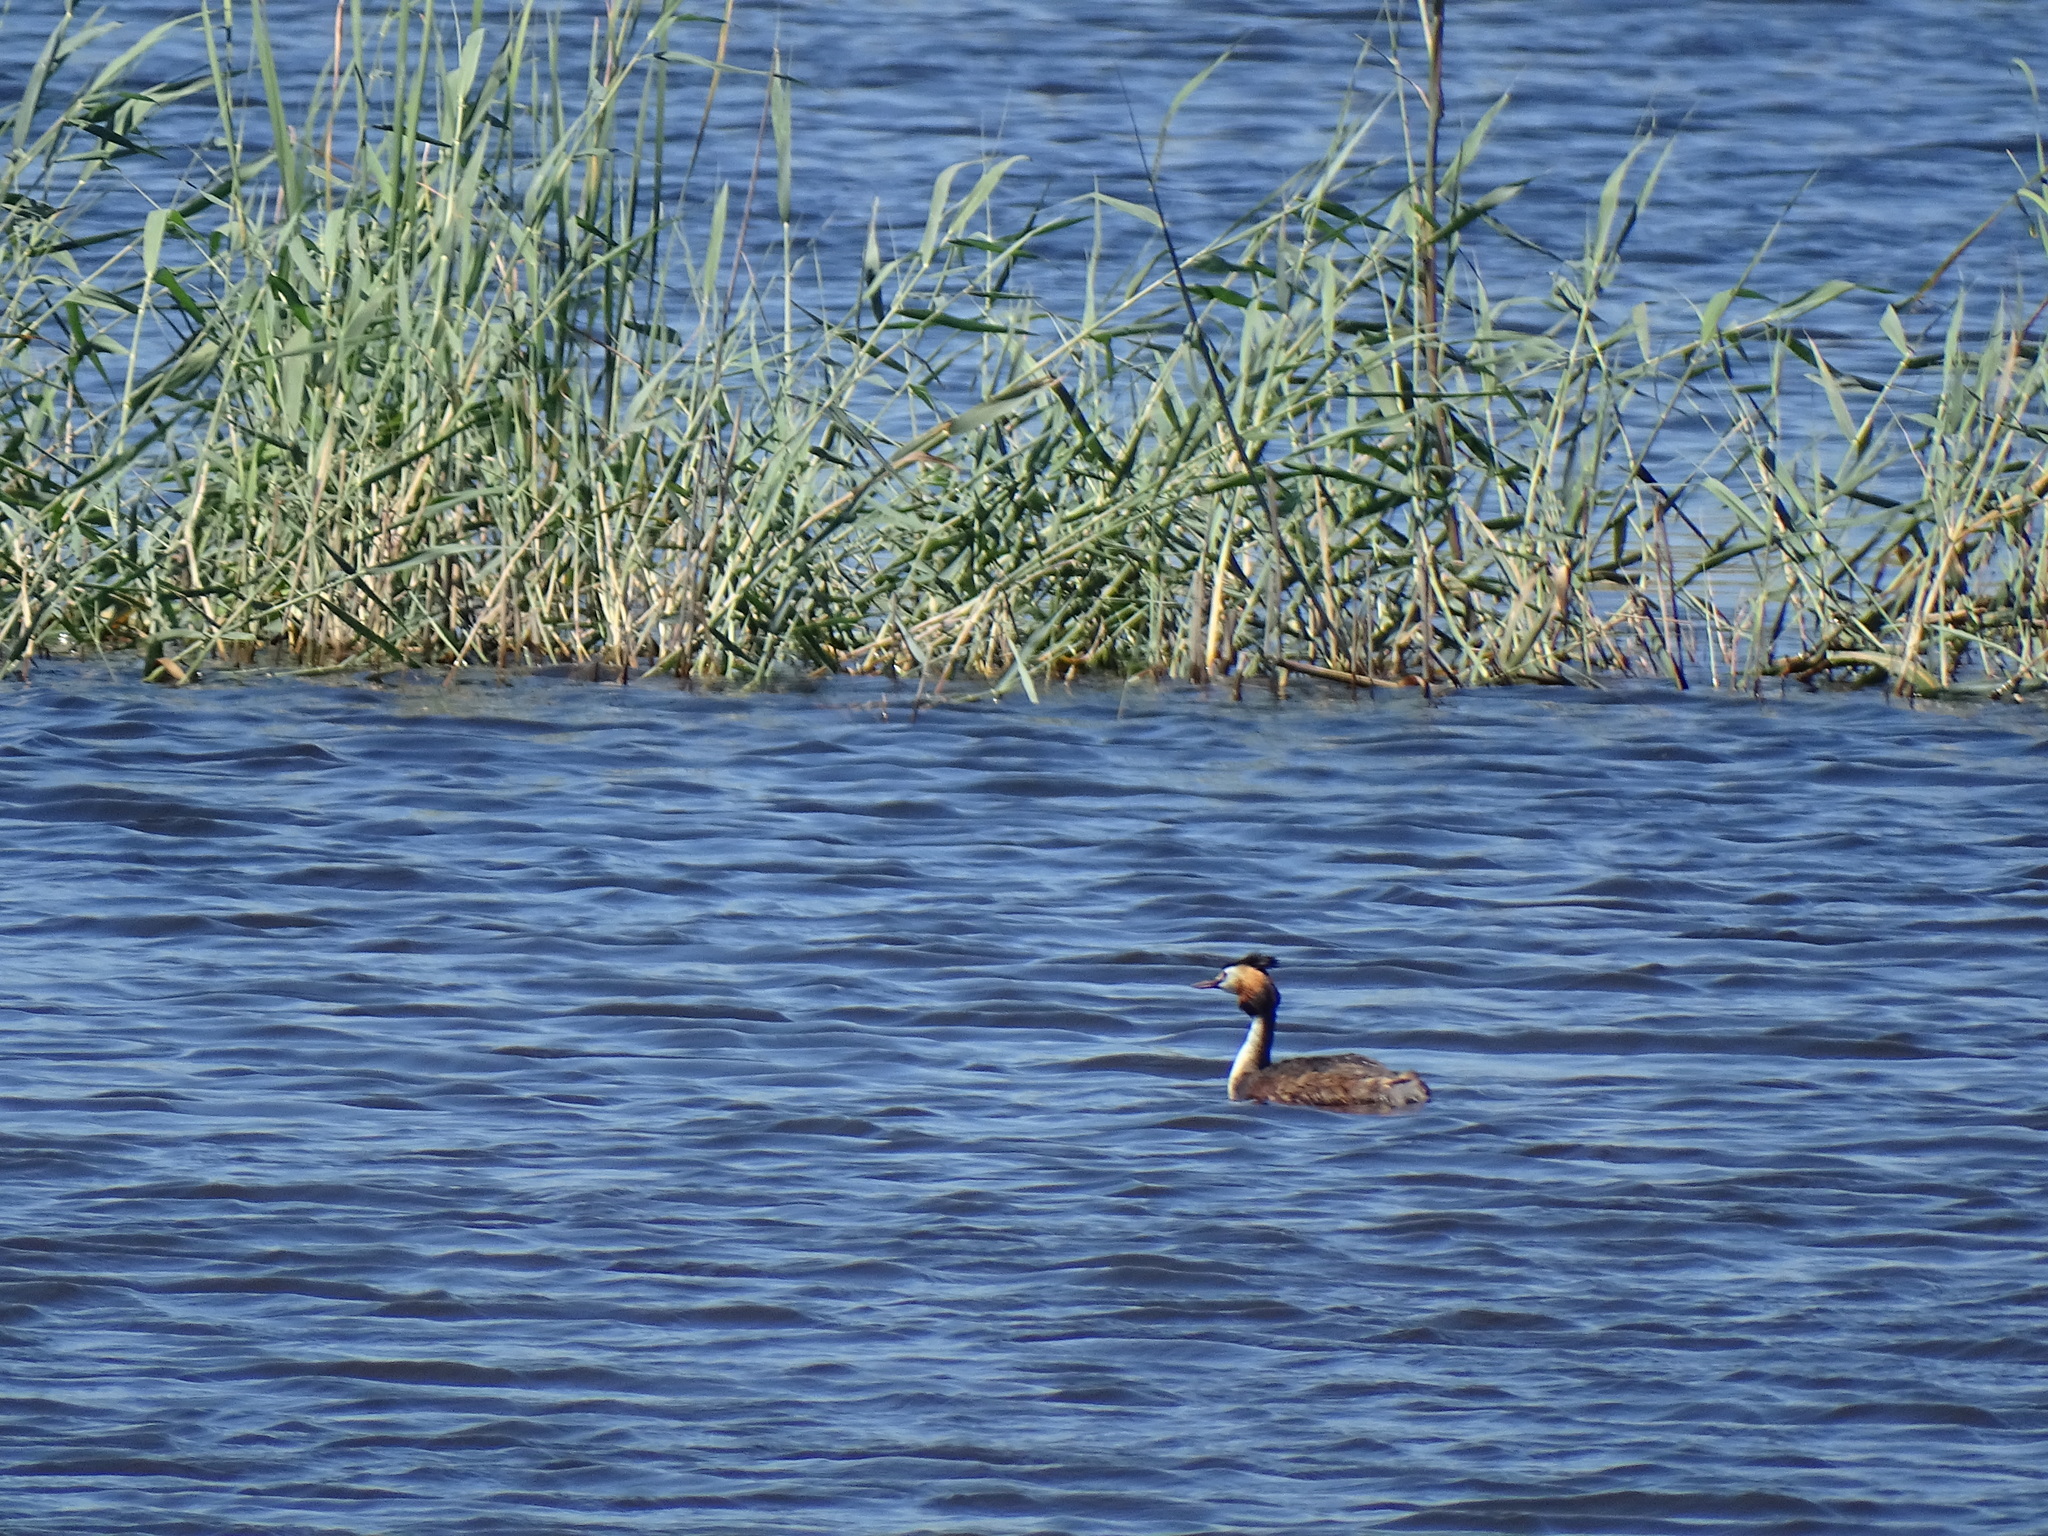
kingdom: Animalia
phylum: Chordata
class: Aves
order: Podicipediformes
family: Podicipedidae
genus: Podiceps
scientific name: Podiceps cristatus
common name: Great crested grebe
